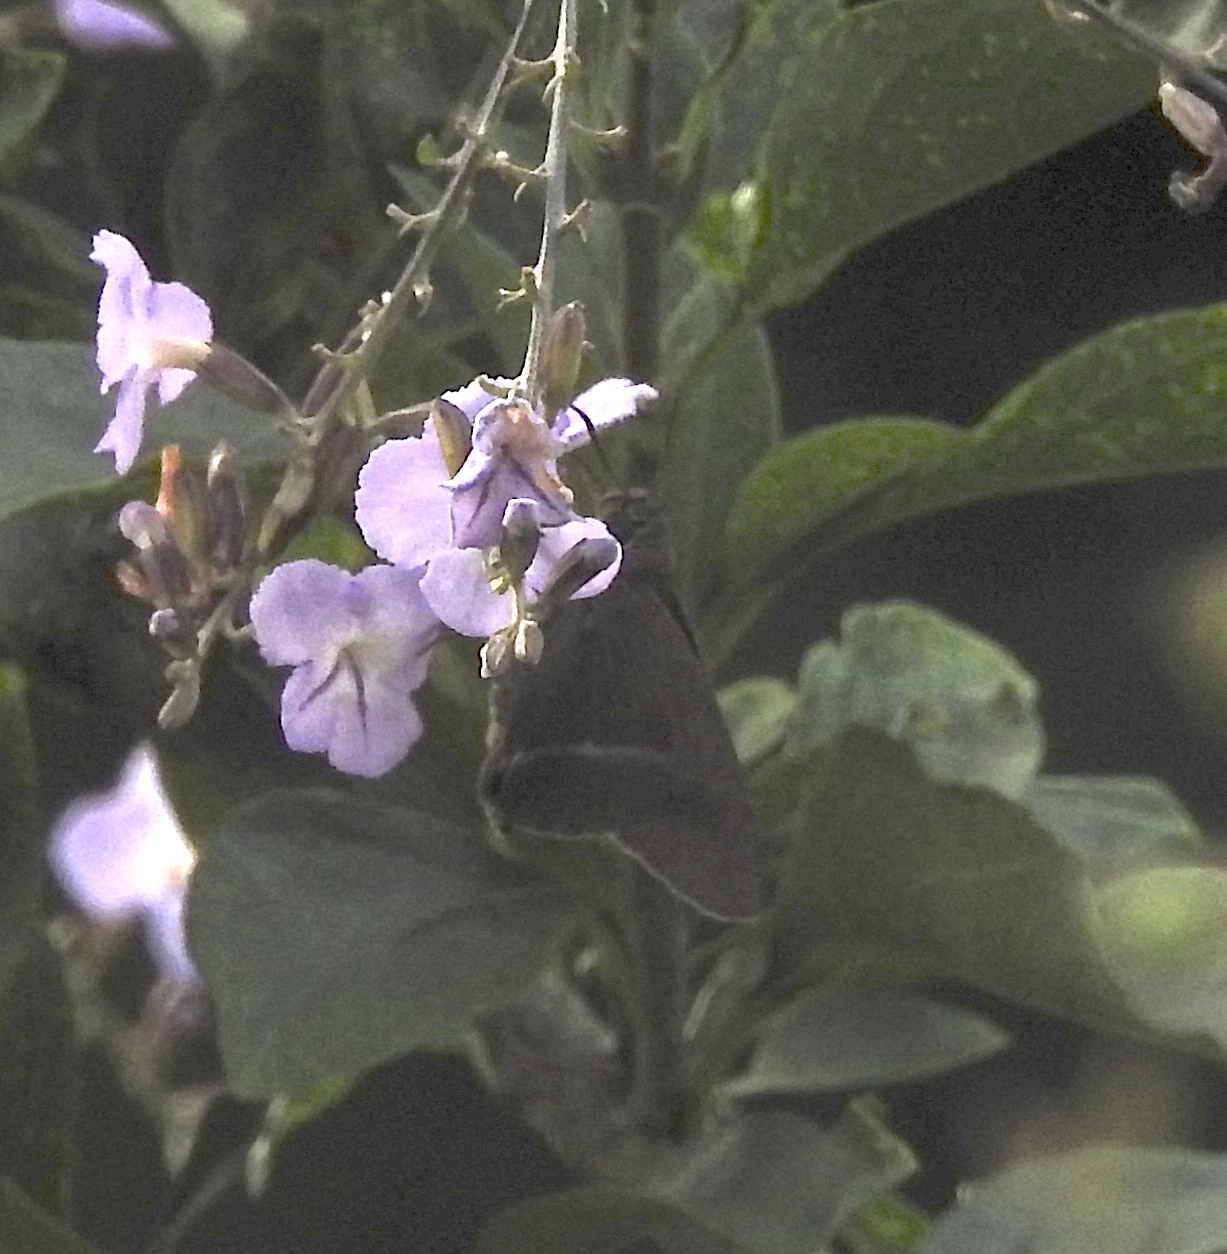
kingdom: Animalia
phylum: Arthropoda
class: Insecta
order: Lepidoptera
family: Hesperiidae
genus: Hasora
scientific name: Hasora chromus
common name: Common banded awl
